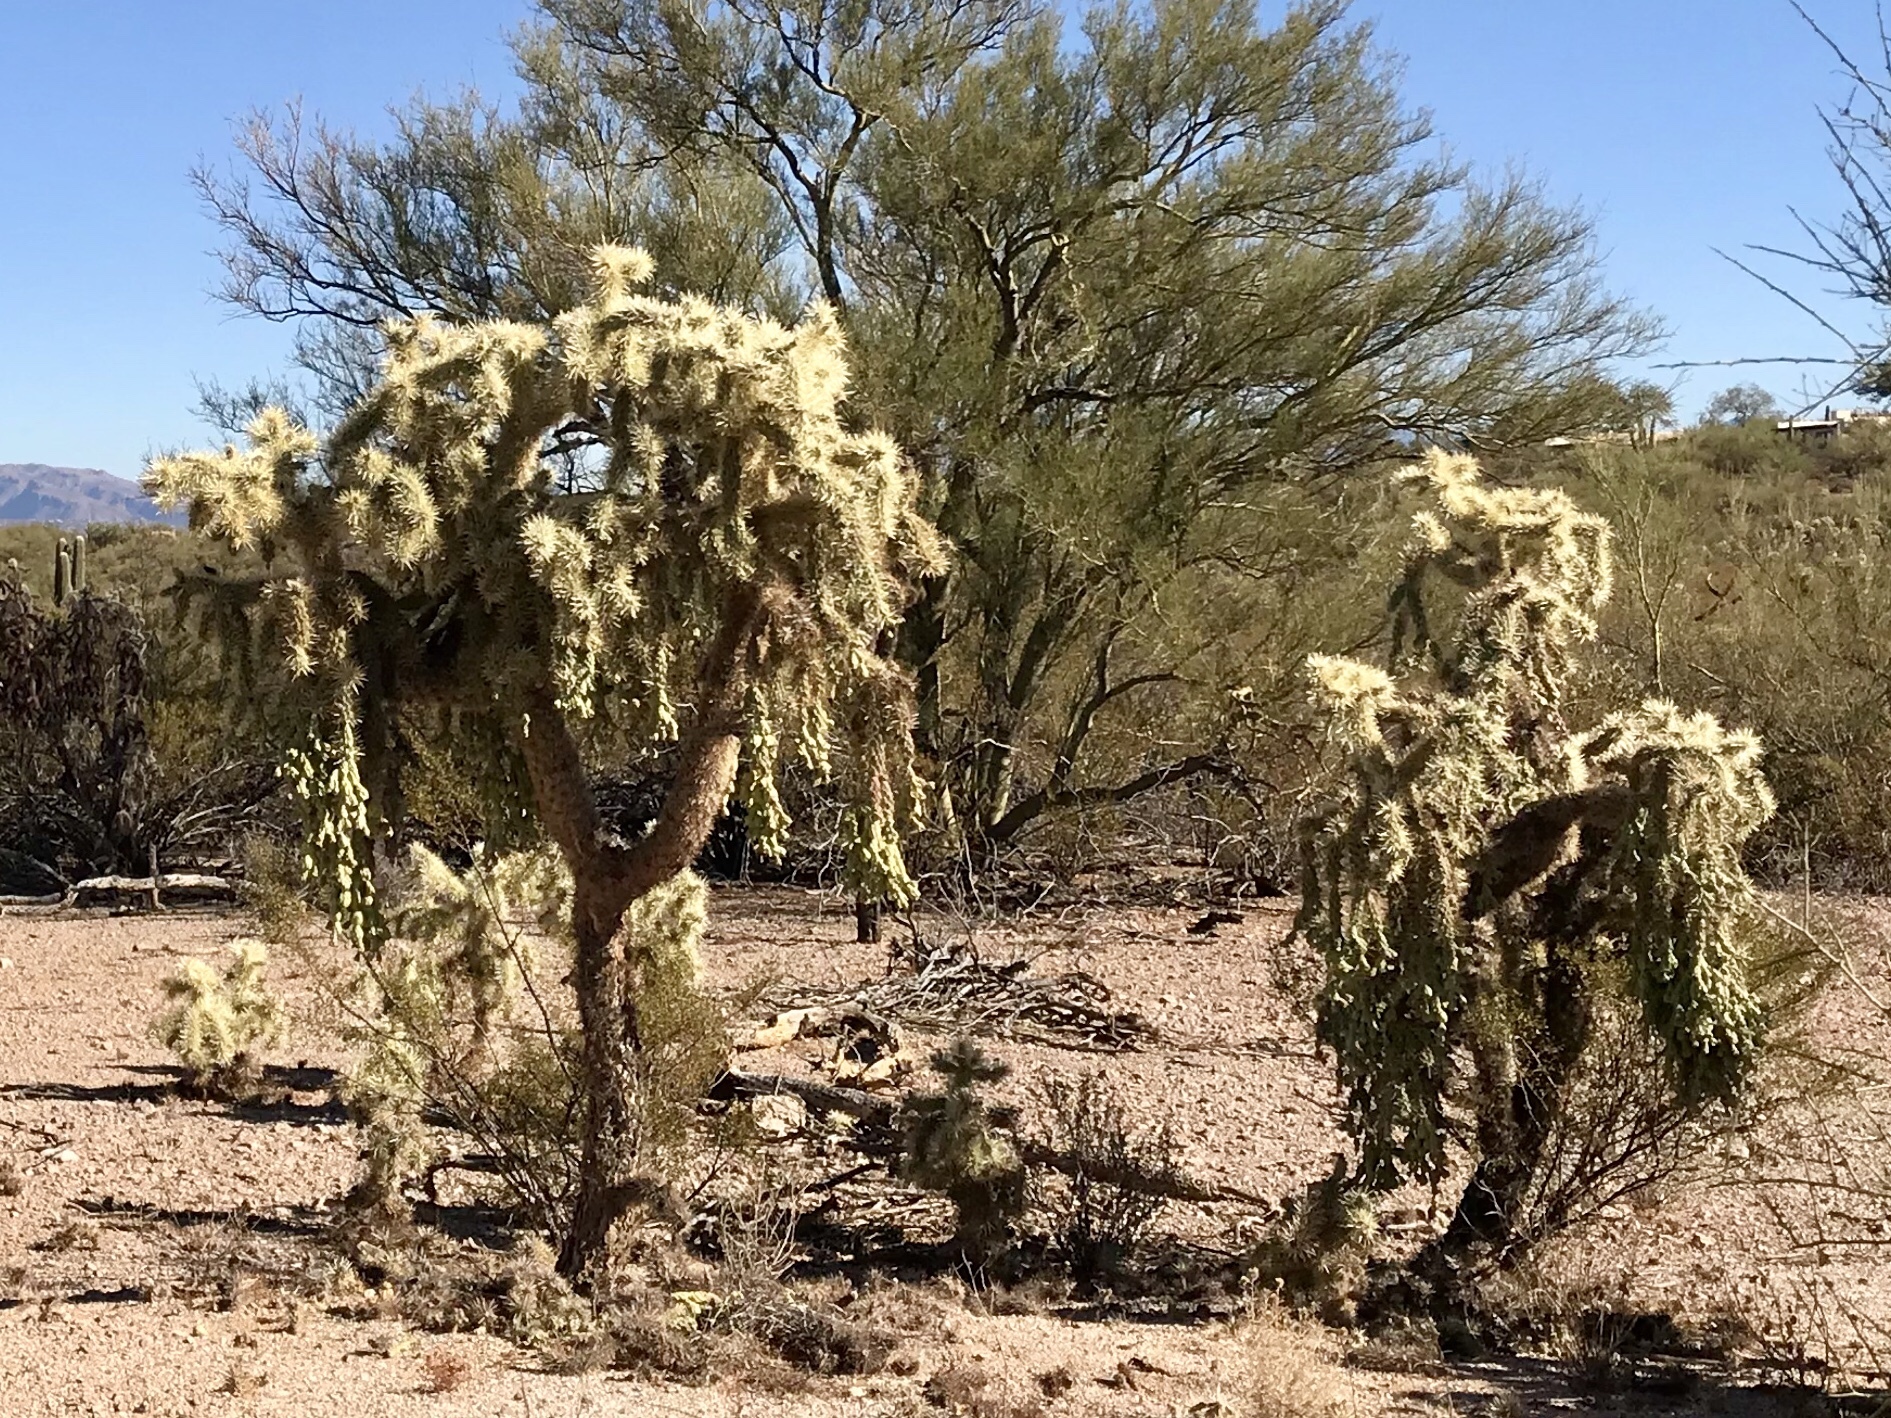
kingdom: Plantae
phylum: Tracheophyta
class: Magnoliopsida
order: Caryophyllales
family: Cactaceae
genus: Cylindropuntia
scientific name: Cylindropuntia fulgida
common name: Jumping cholla
